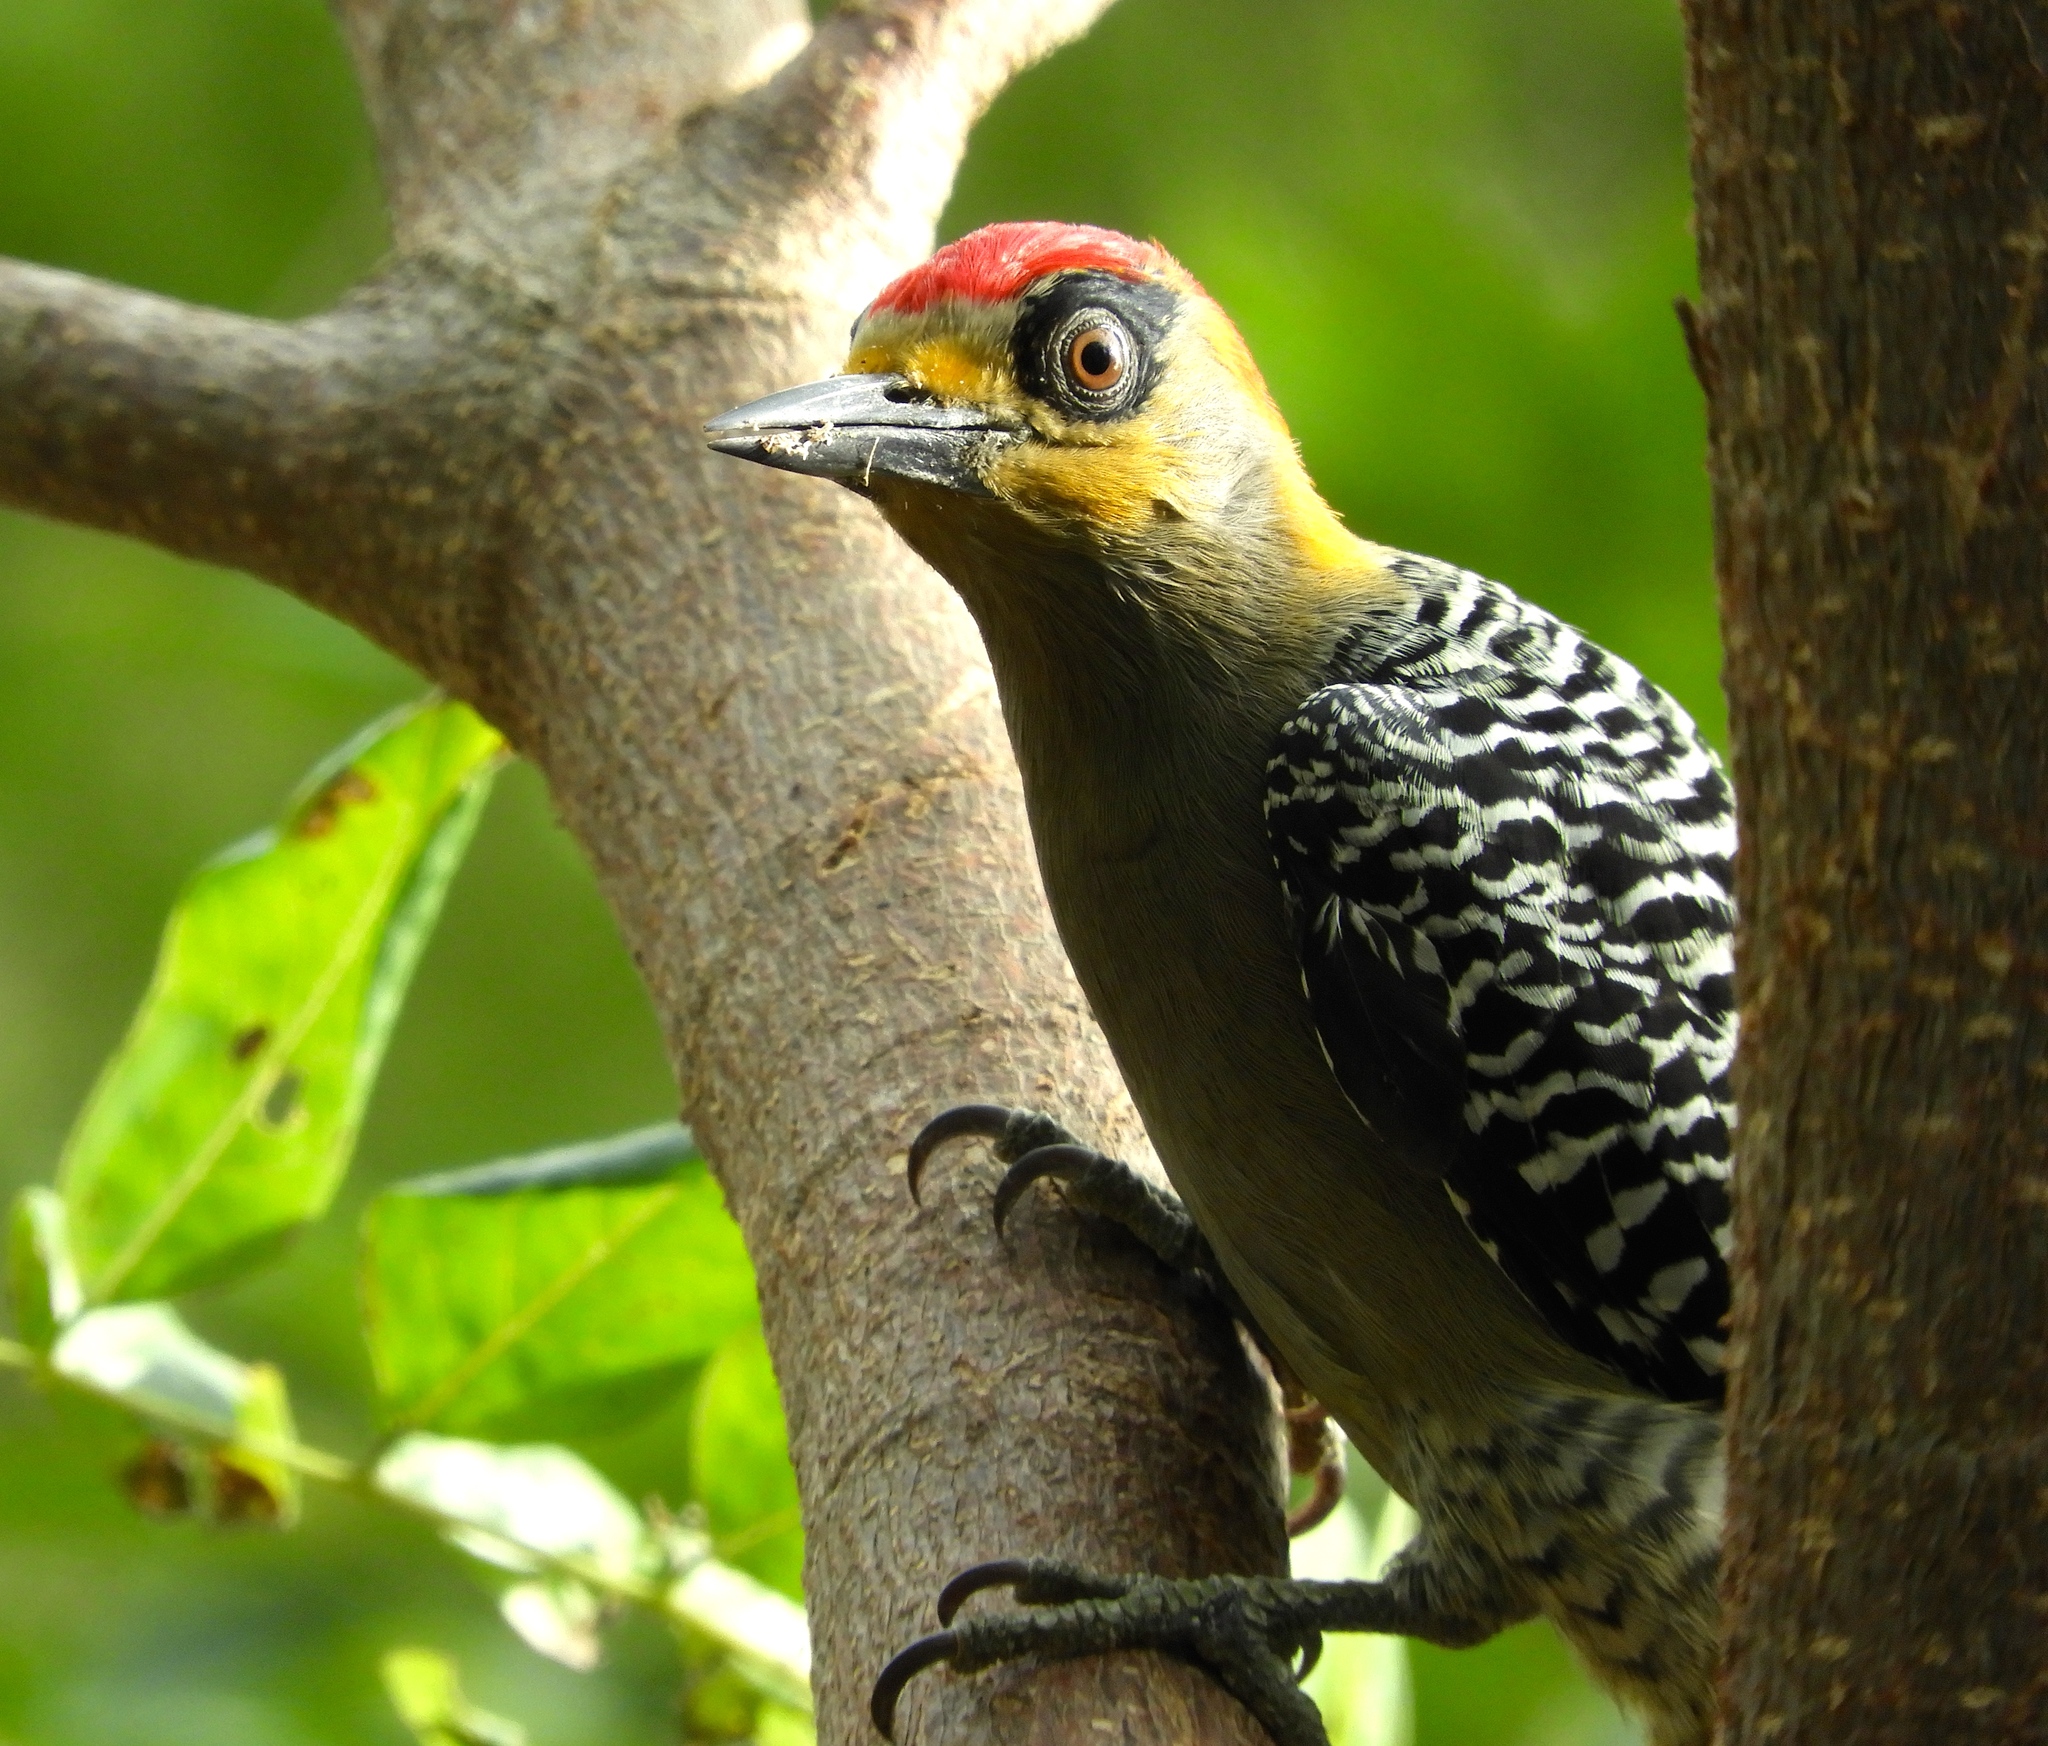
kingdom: Animalia
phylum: Chordata
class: Aves
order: Piciformes
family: Picidae
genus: Melanerpes
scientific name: Melanerpes chrysogenys
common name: Golden-cheeked woodpecker
